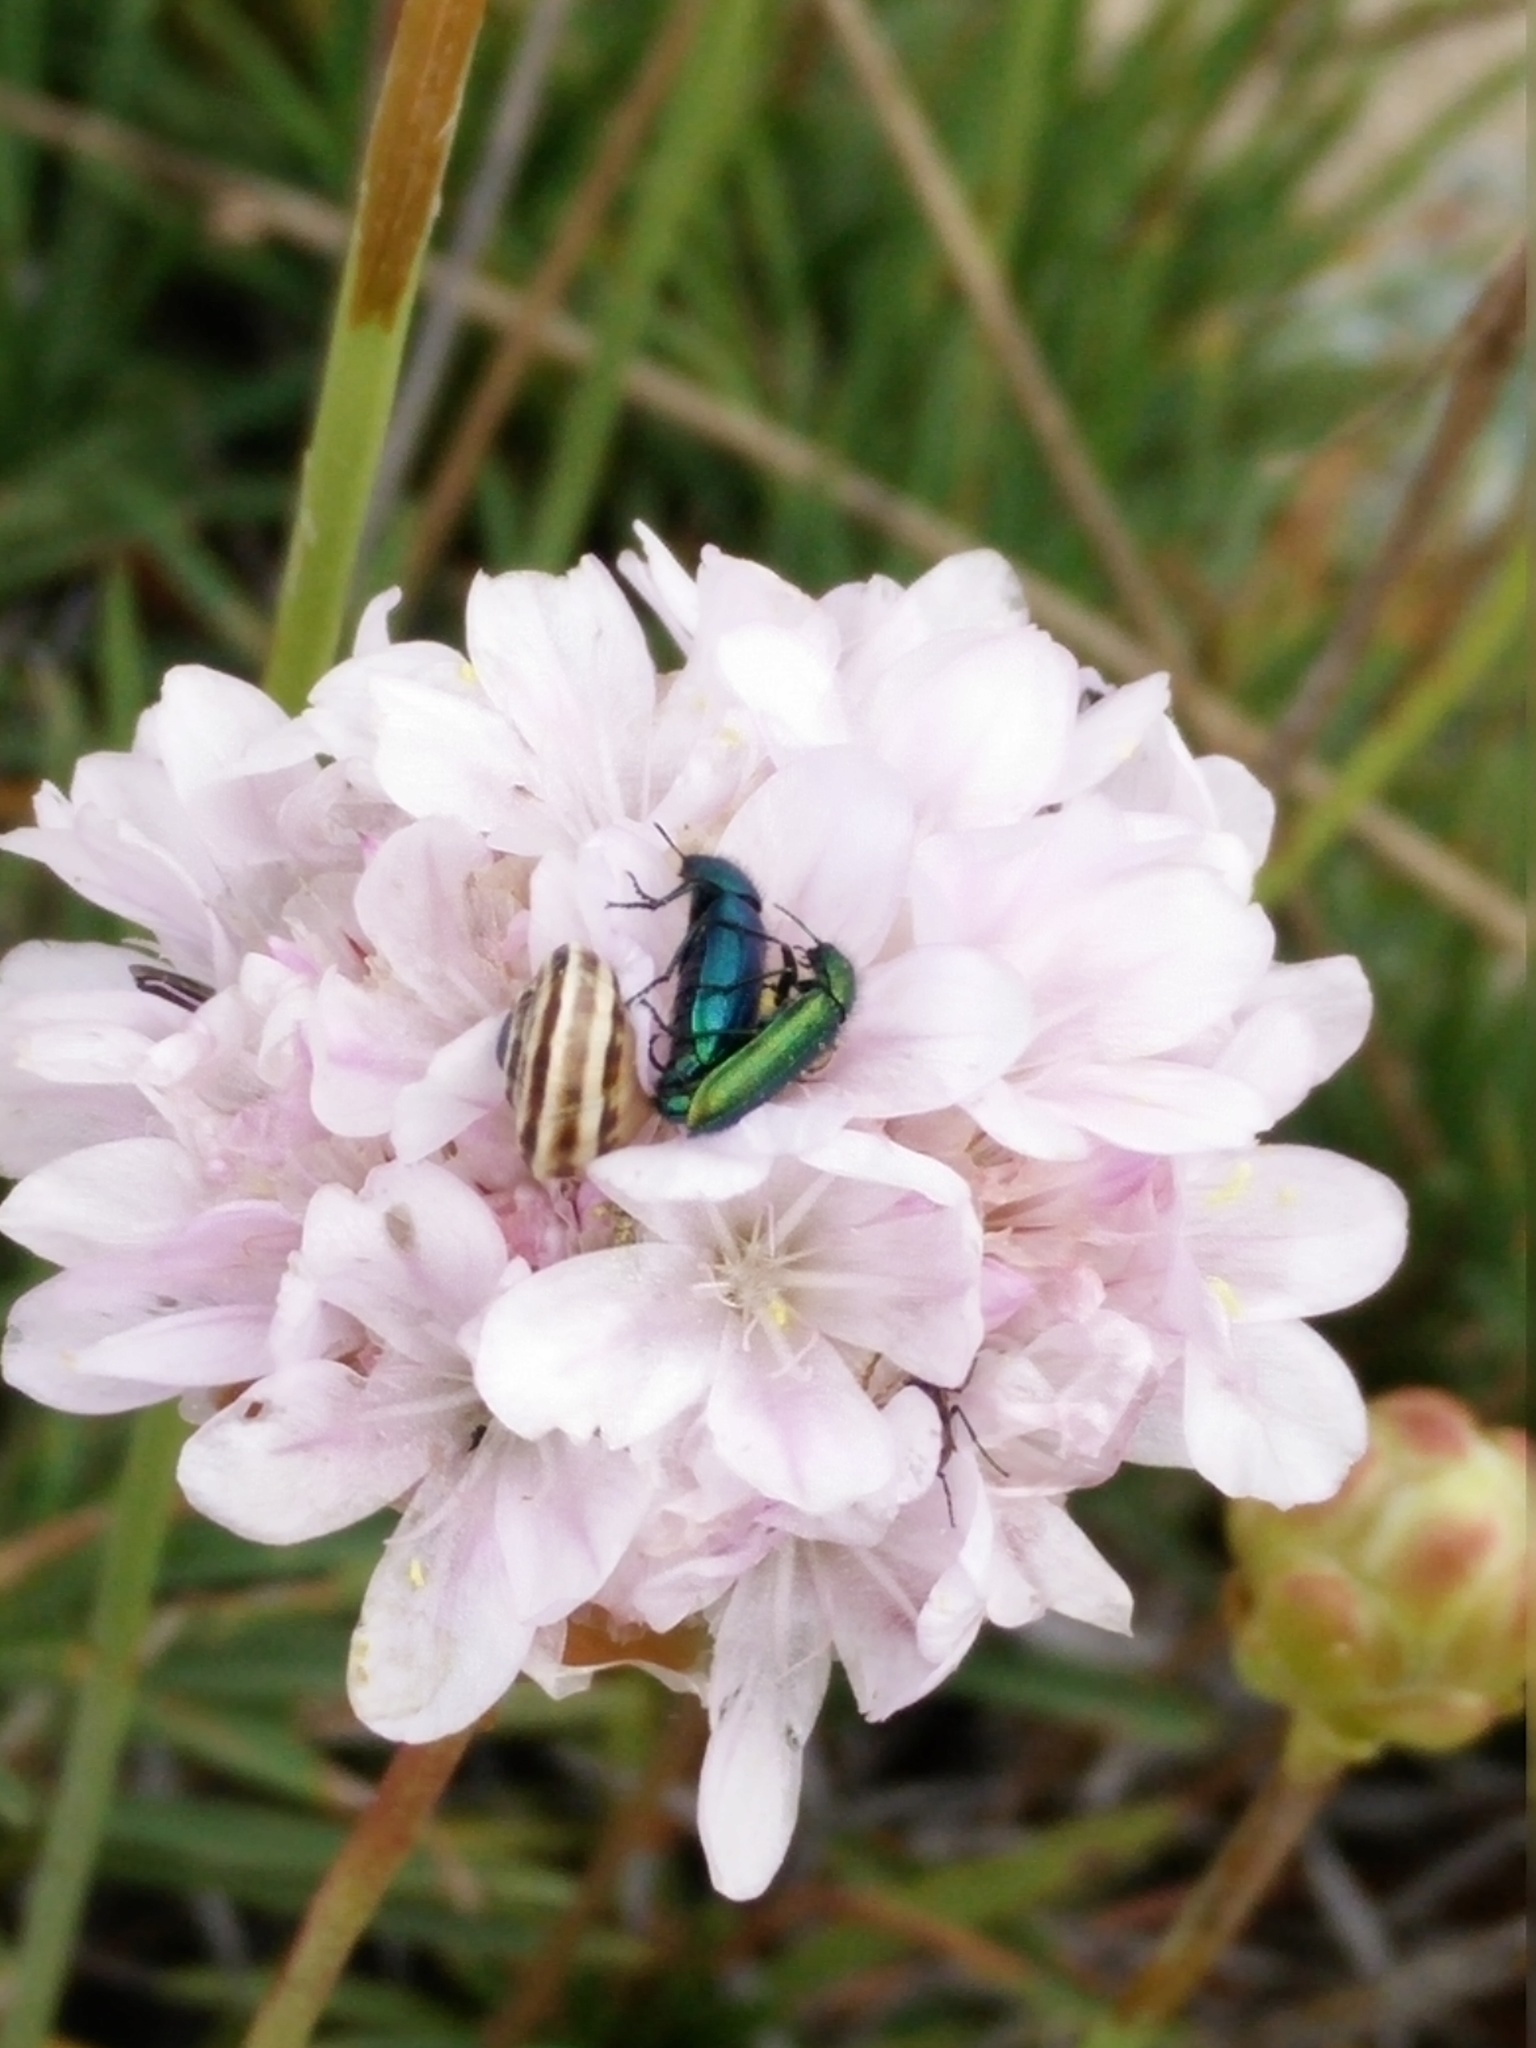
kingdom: Plantae
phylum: Tracheophyta
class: Magnoliopsida
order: Caryophyllales
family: Plumbaginaceae
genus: Armeria
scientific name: Armeria pungens
